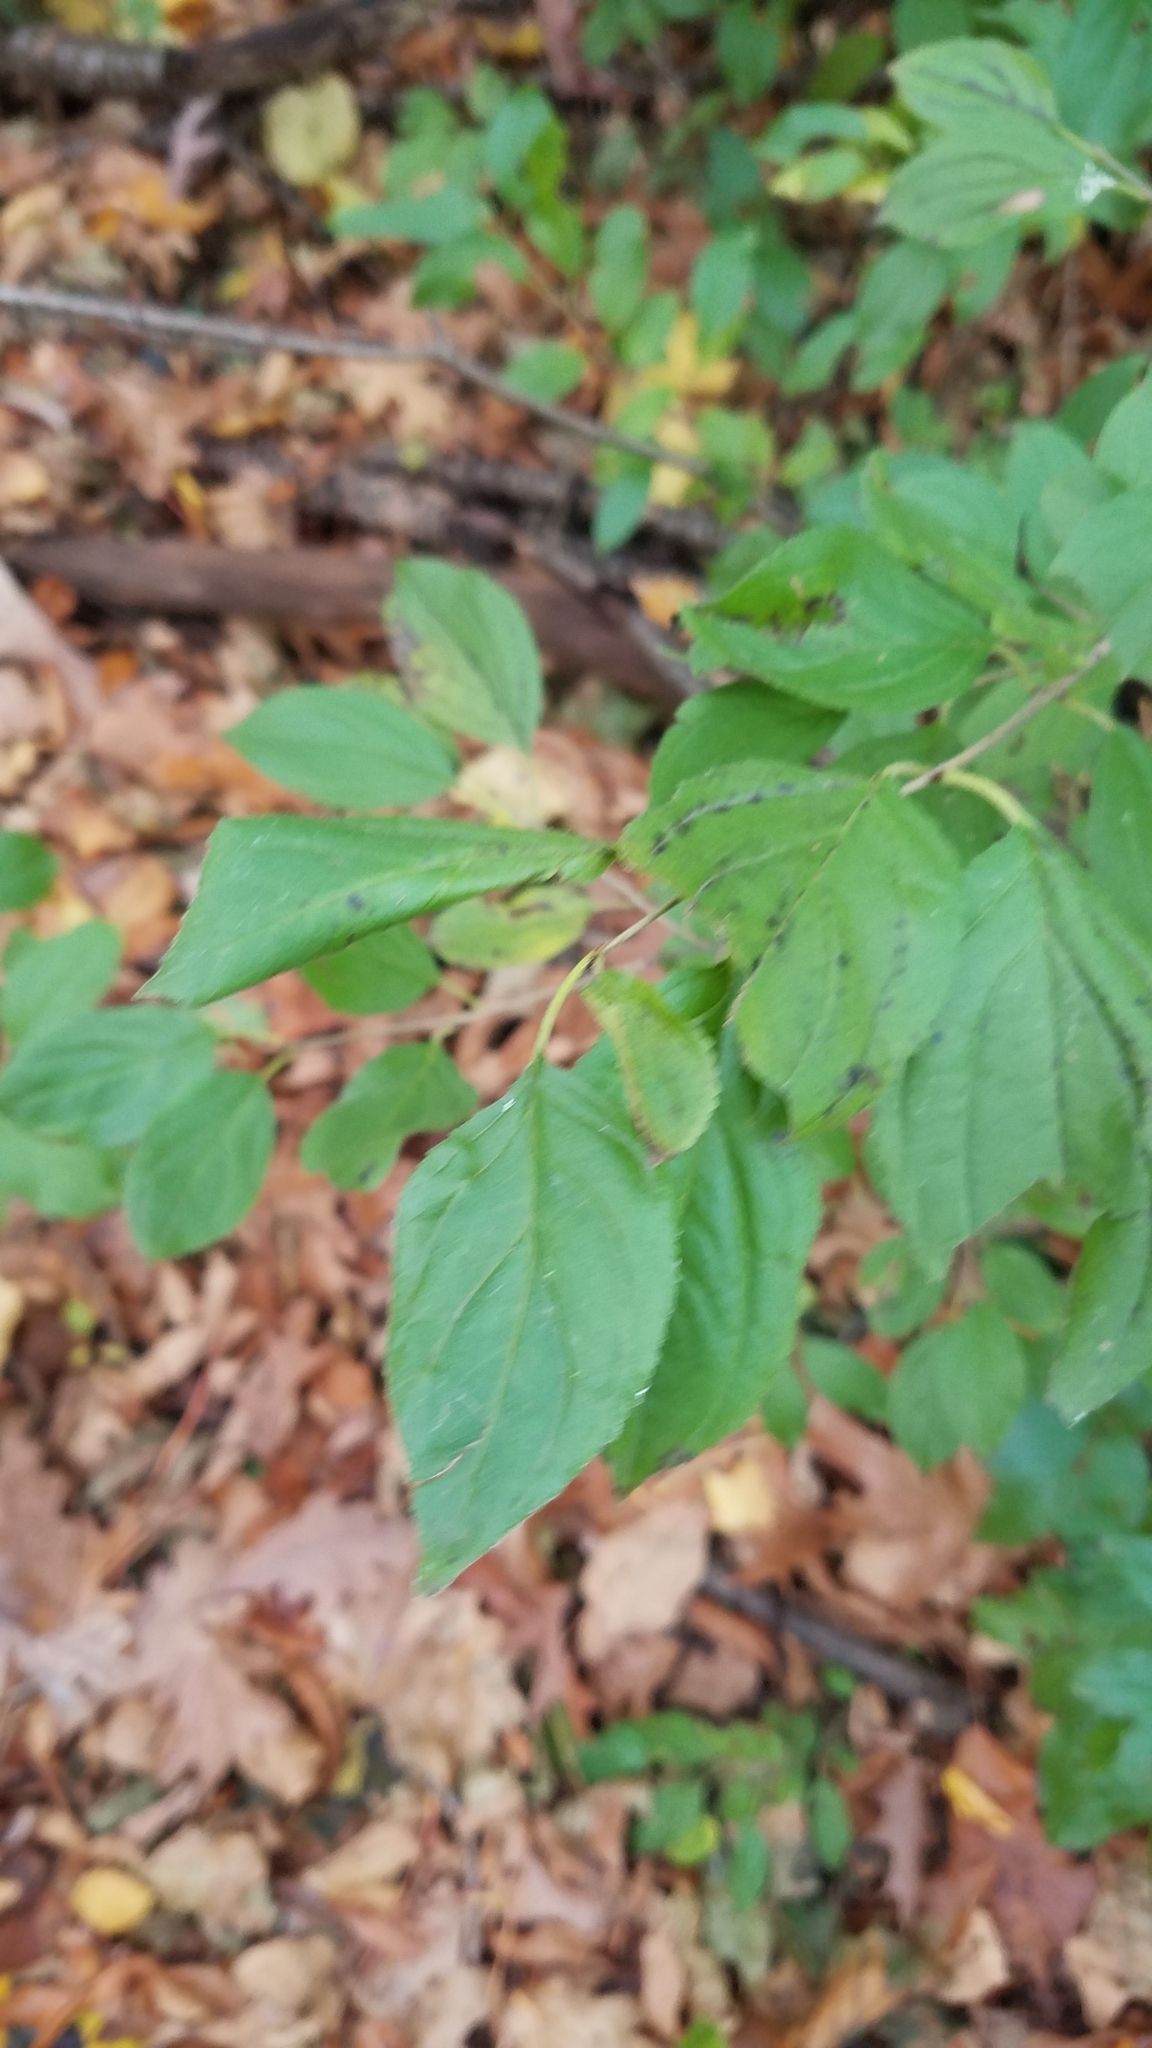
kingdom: Plantae
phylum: Tracheophyta
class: Magnoliopsida
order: Rosales
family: Rhamnaceae
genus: Rhamnus
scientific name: Rhamnus cathartica
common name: Common buckthorn
